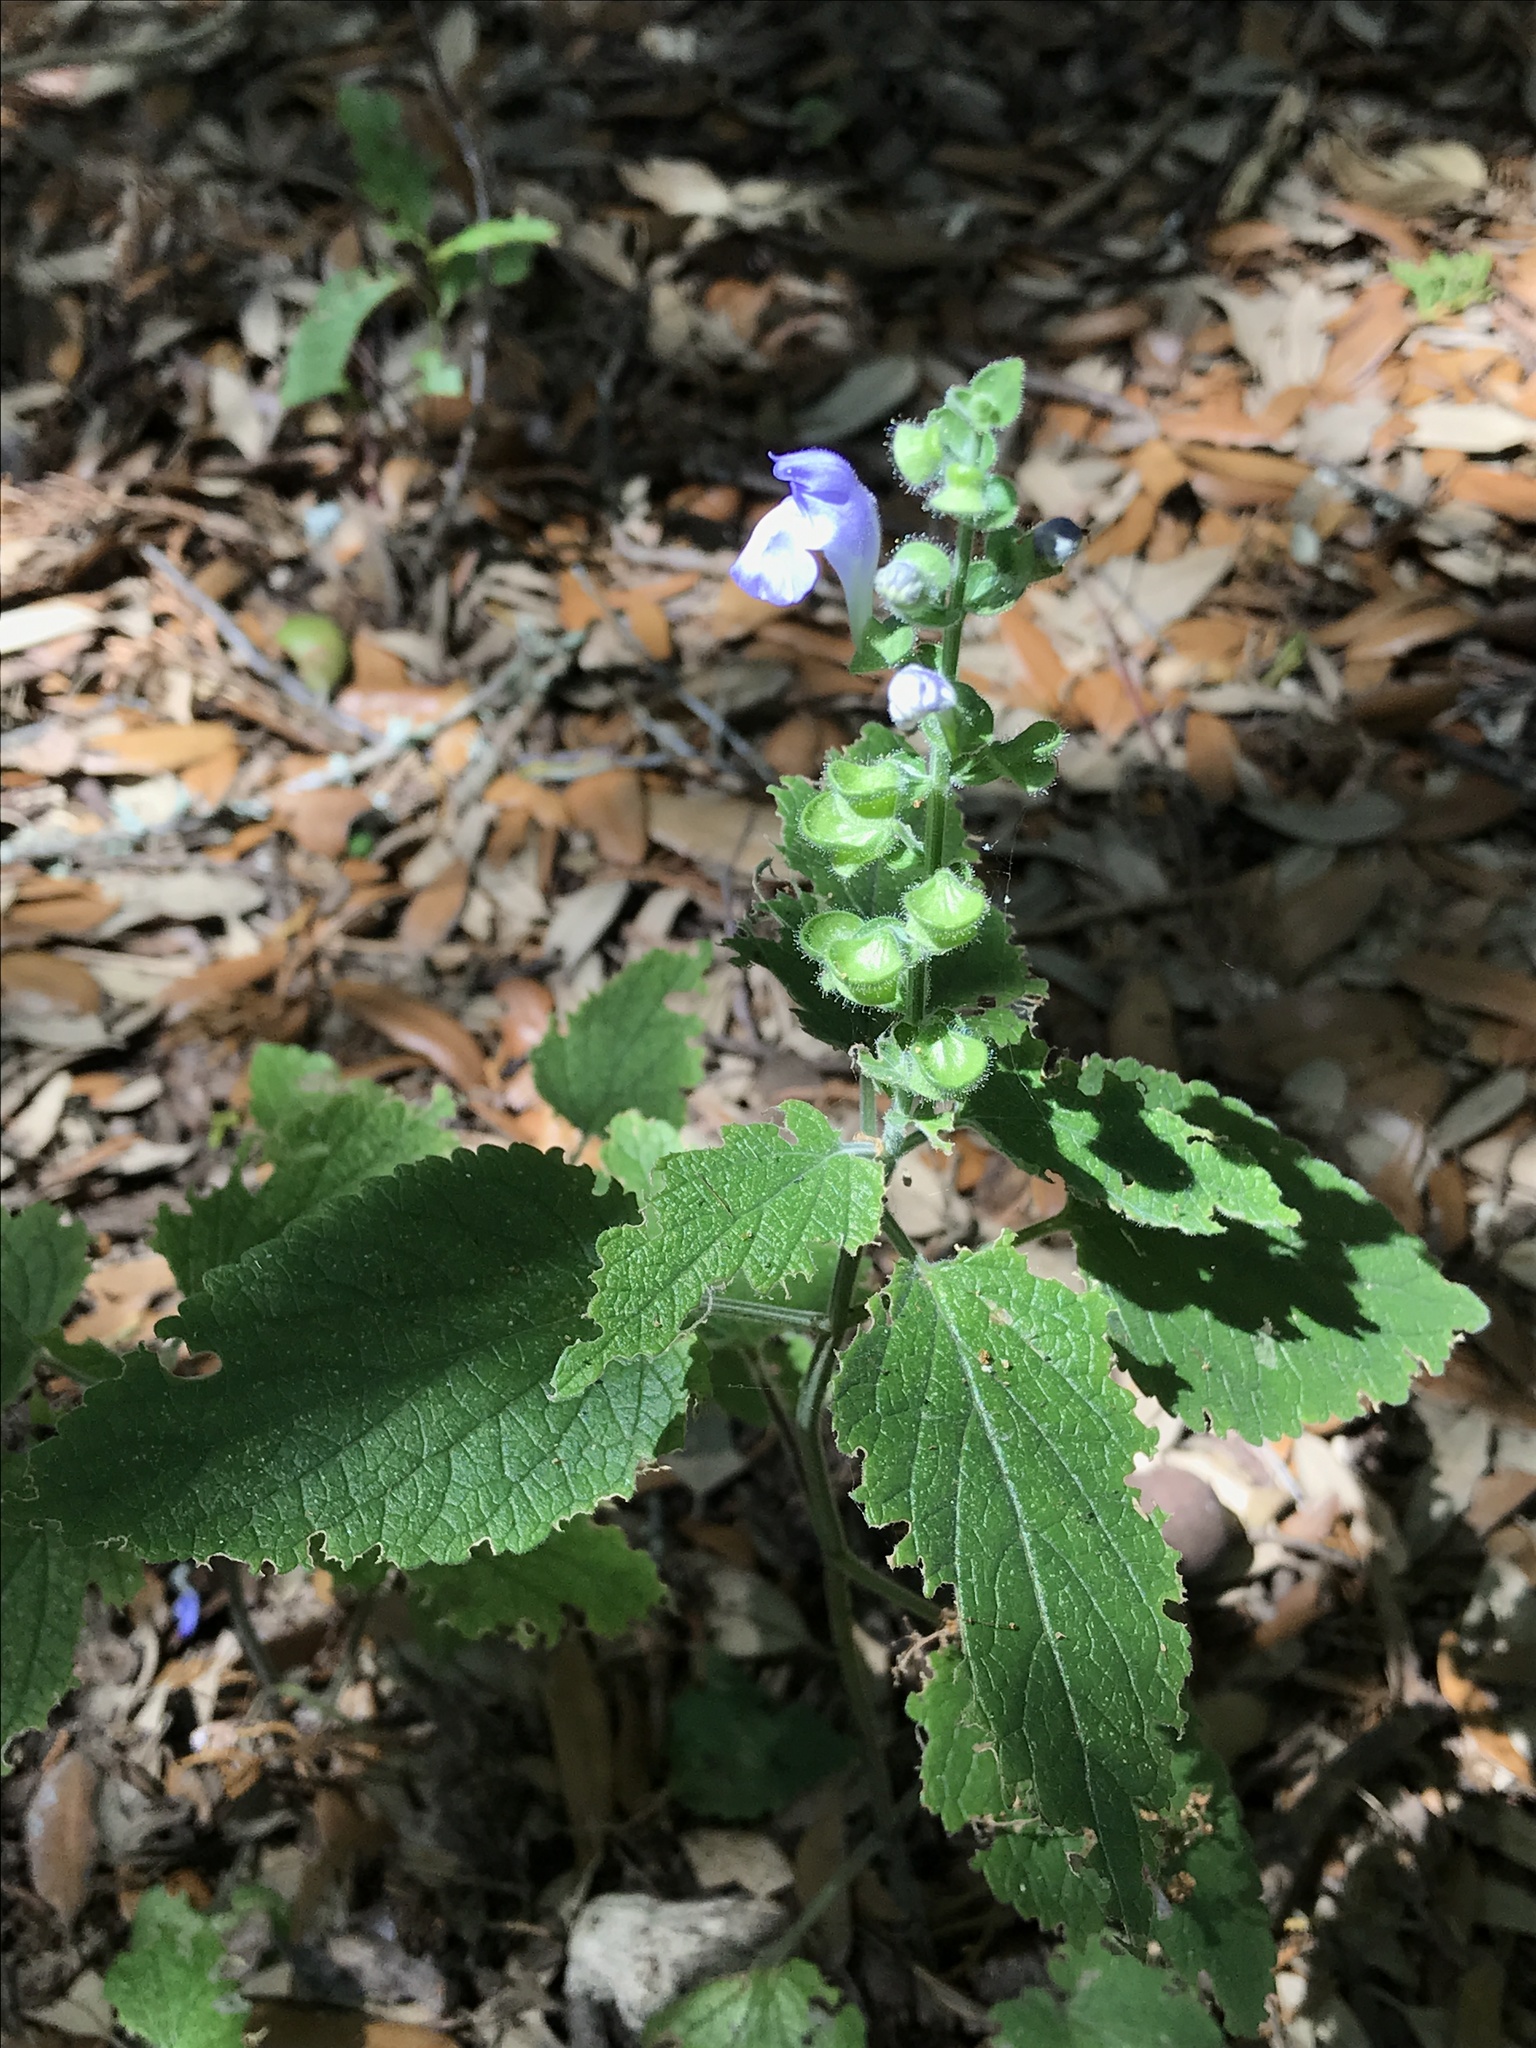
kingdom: Plantae
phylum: Tracheophyta
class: Magnoliopsida
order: Lamiales
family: Lamiaceae
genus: Scutellaria
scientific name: Scutellaria ovata
